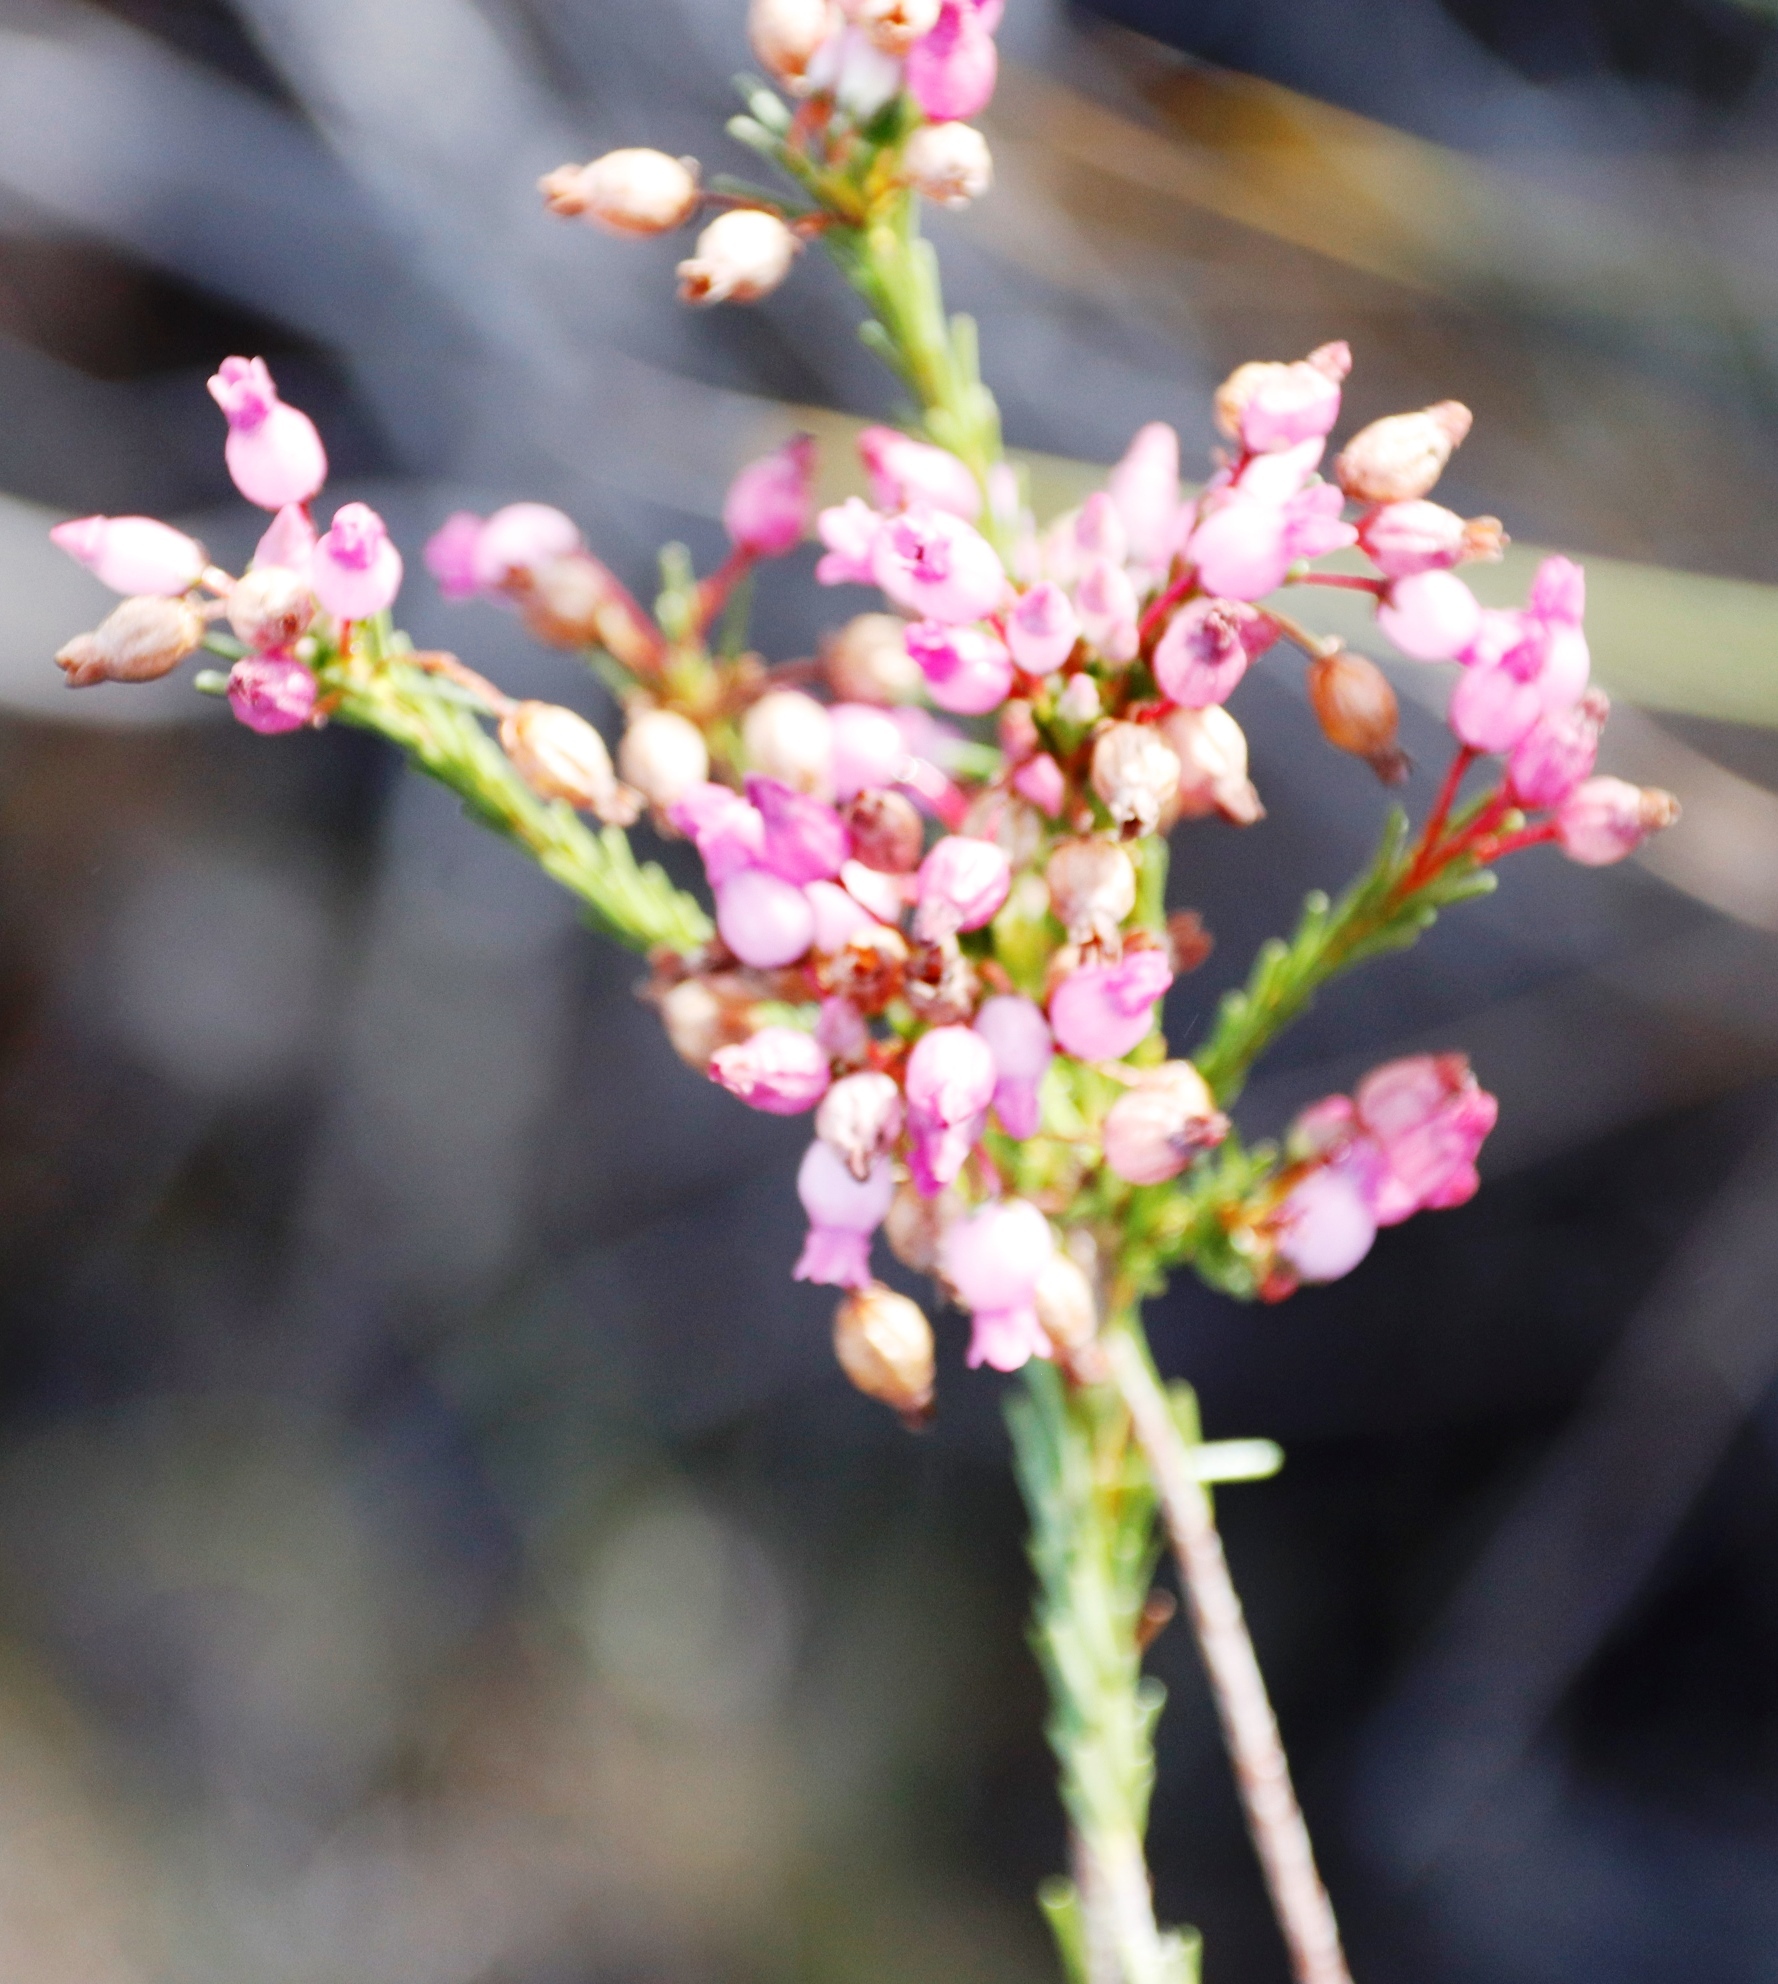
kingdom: Plantae
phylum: Tracheophyta
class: Magnoliopsida
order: Ericales
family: Ericaceae
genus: Erica
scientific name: Erica obliqua
